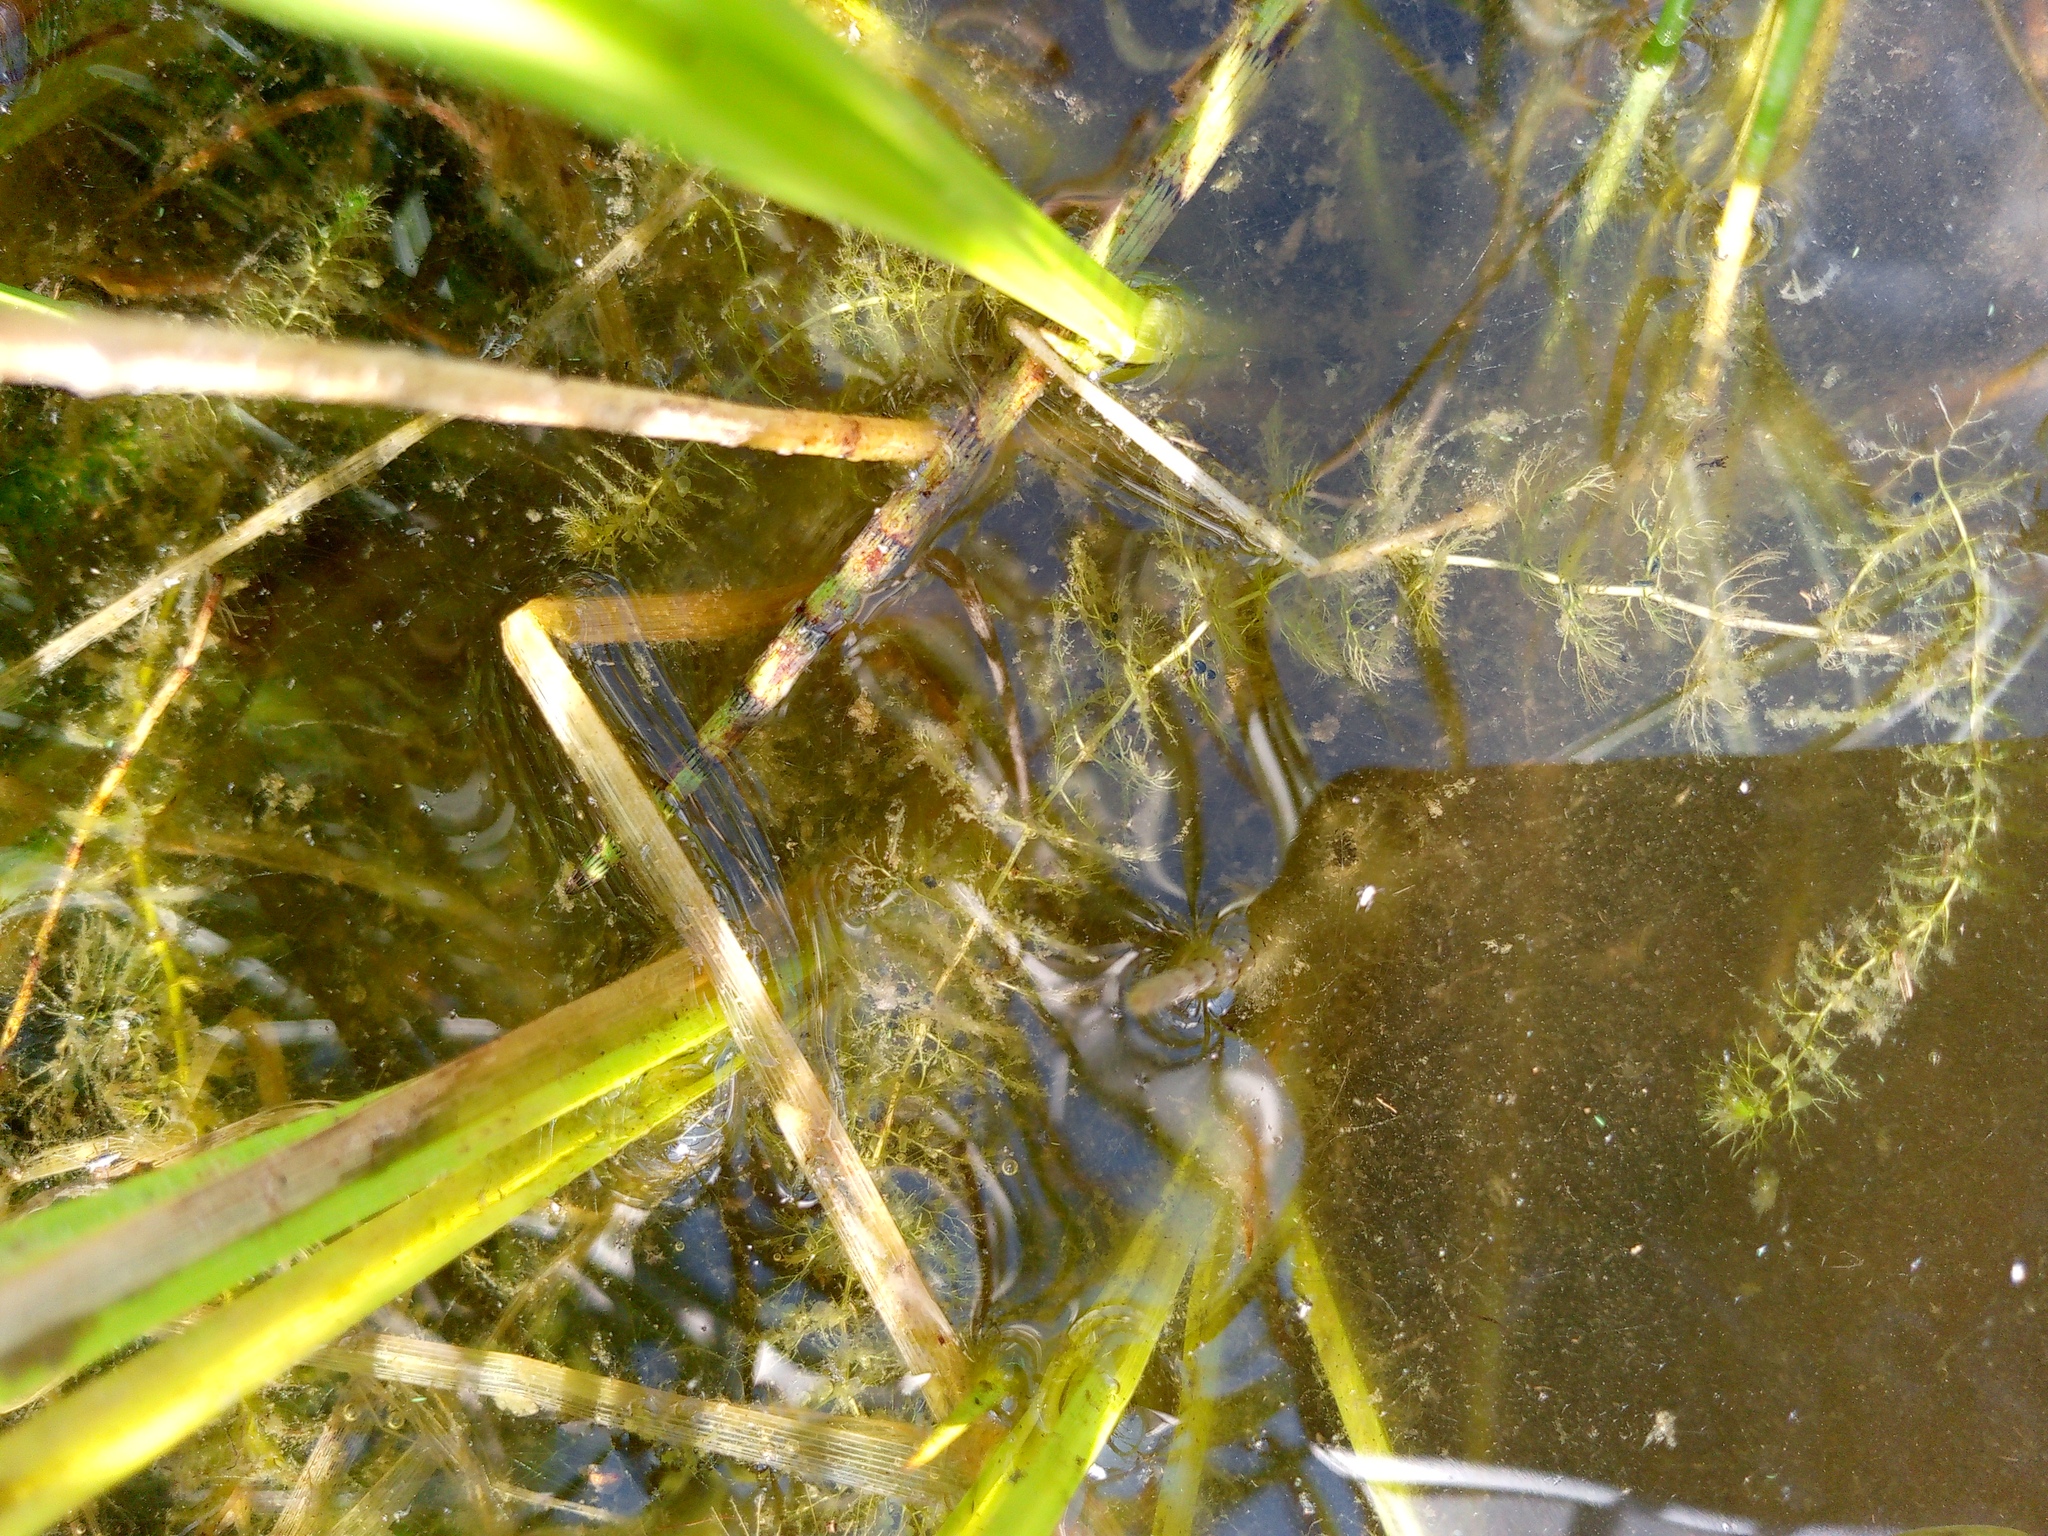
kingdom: Plantae
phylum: Tracheophyta
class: Magnoliopsida
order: Lamiales
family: Lentibulariaceae
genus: Utricularia
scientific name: Utricularia
